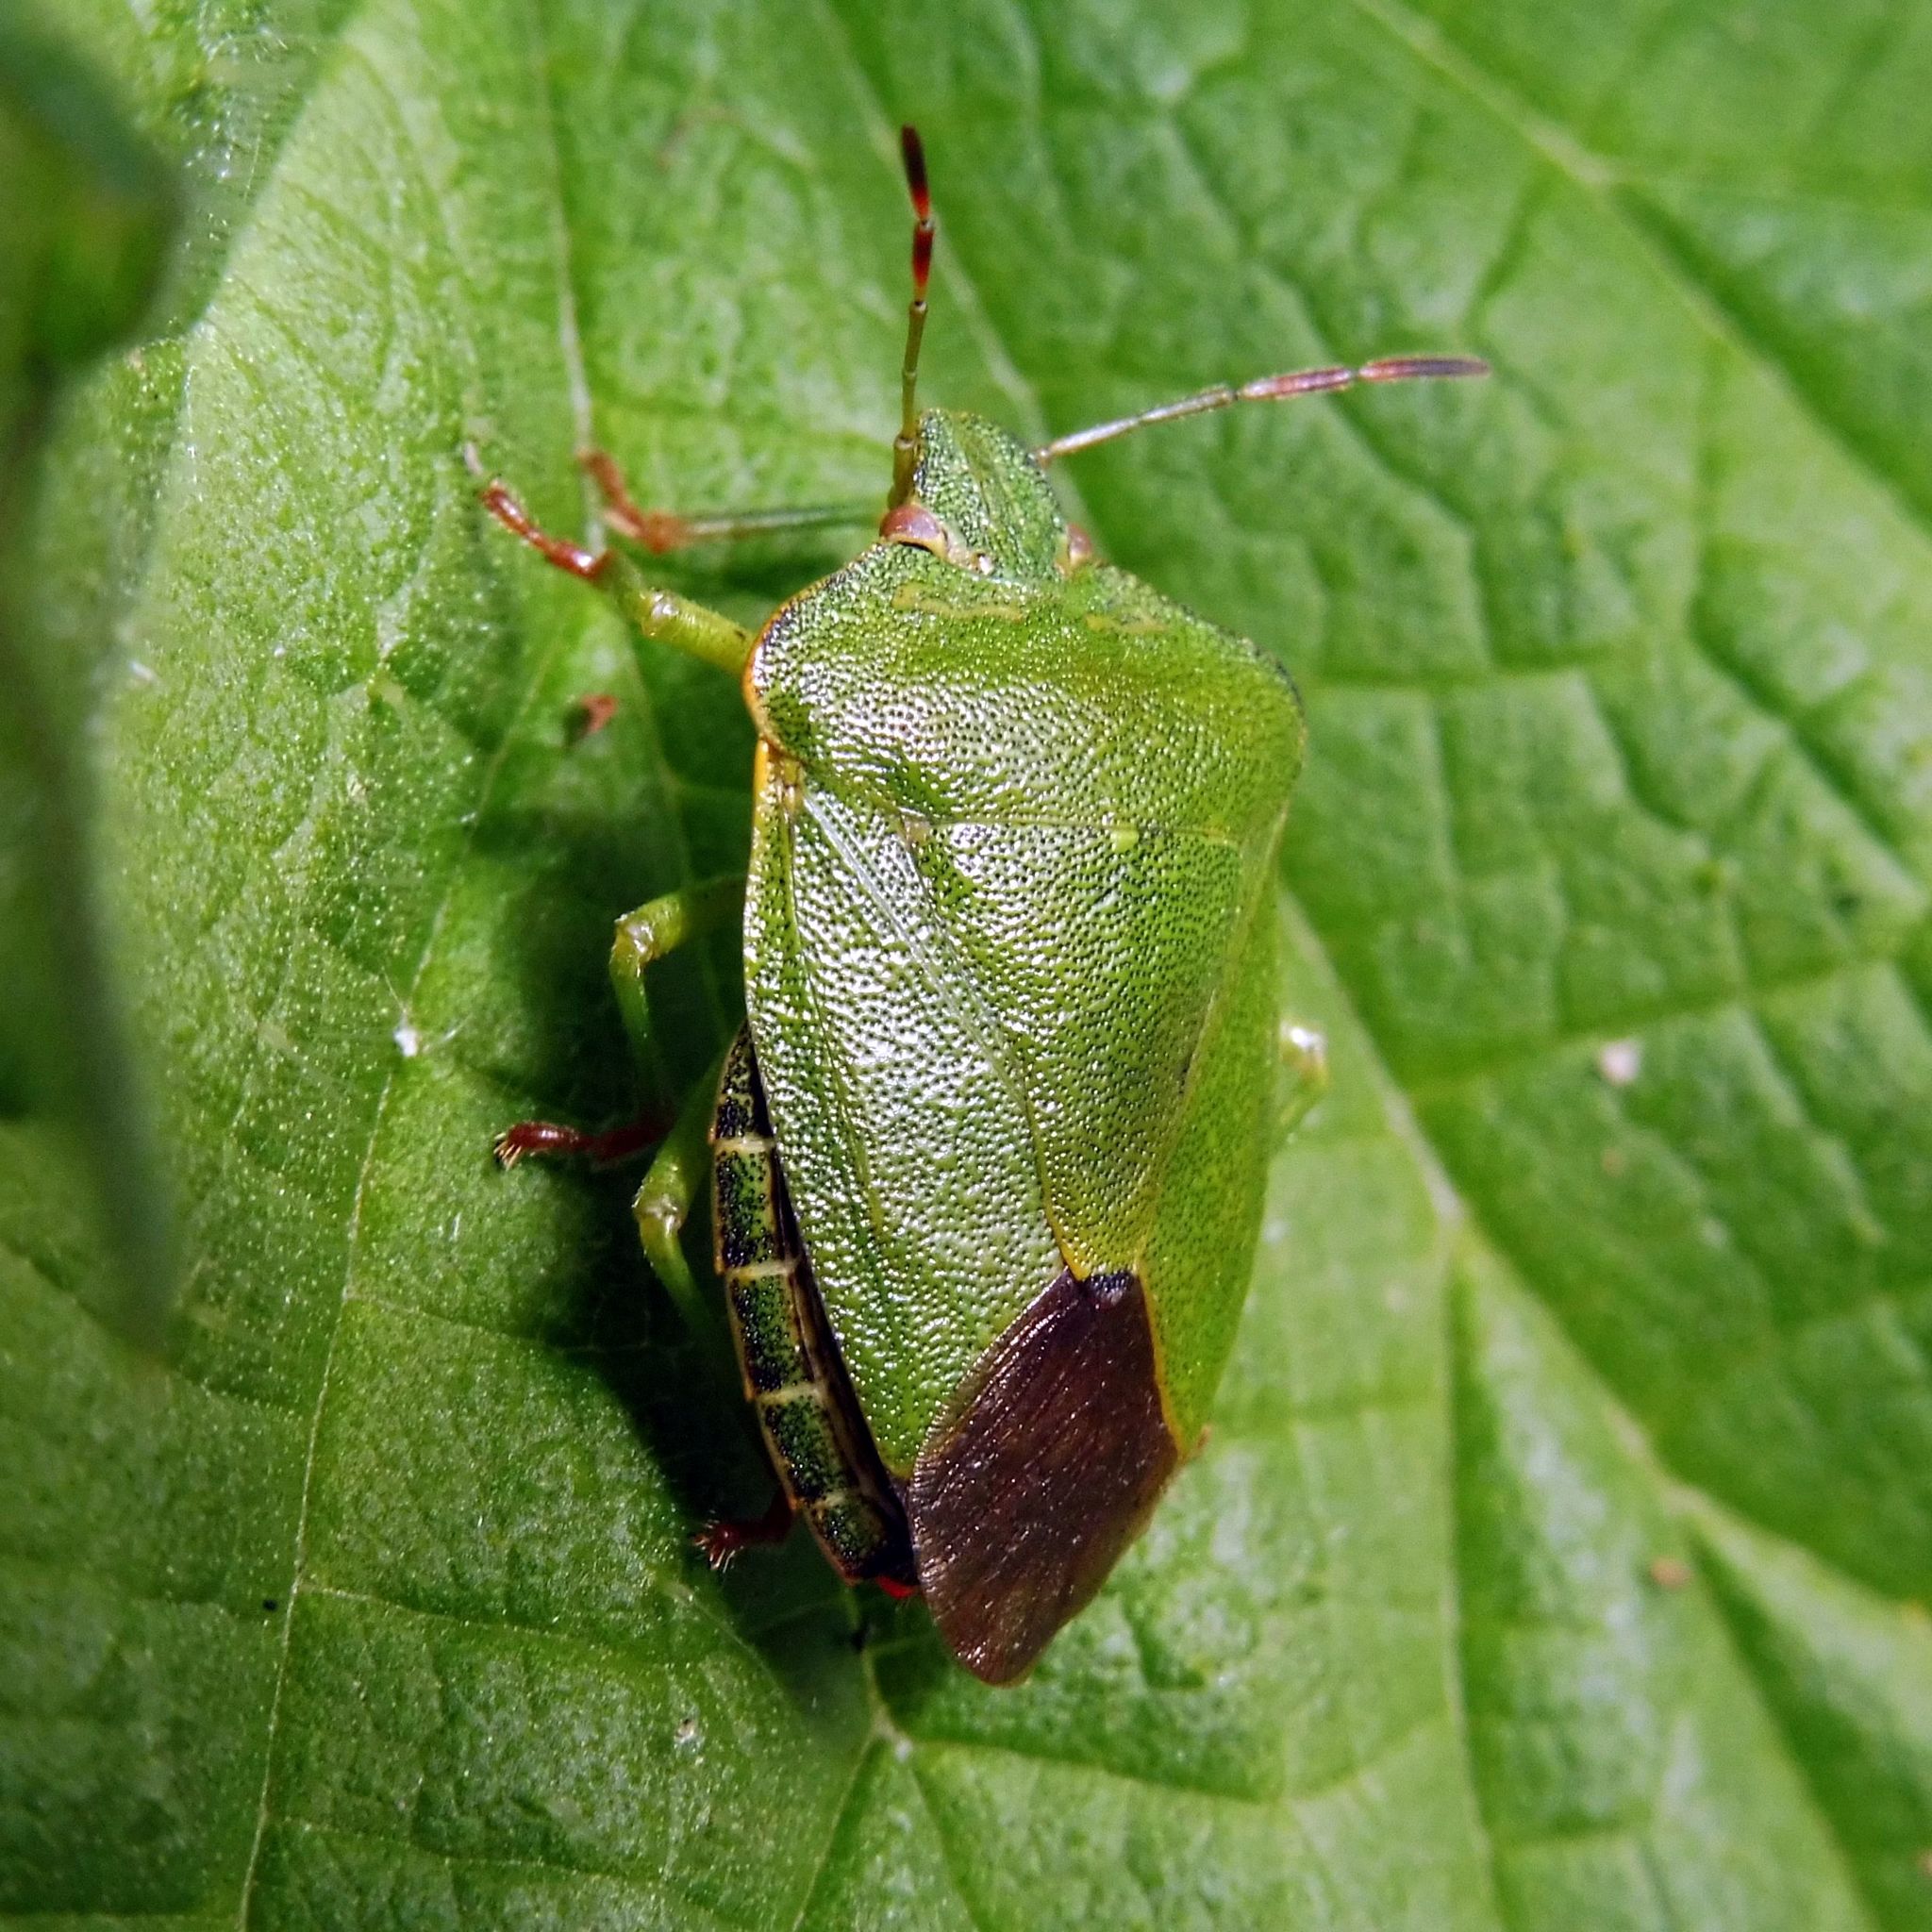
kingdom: Animalia
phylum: Arthropoda
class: Insecta
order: Hemiptera
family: Pentatomidae
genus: Palomena
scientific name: Palomena prasina
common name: Green shieldbug
